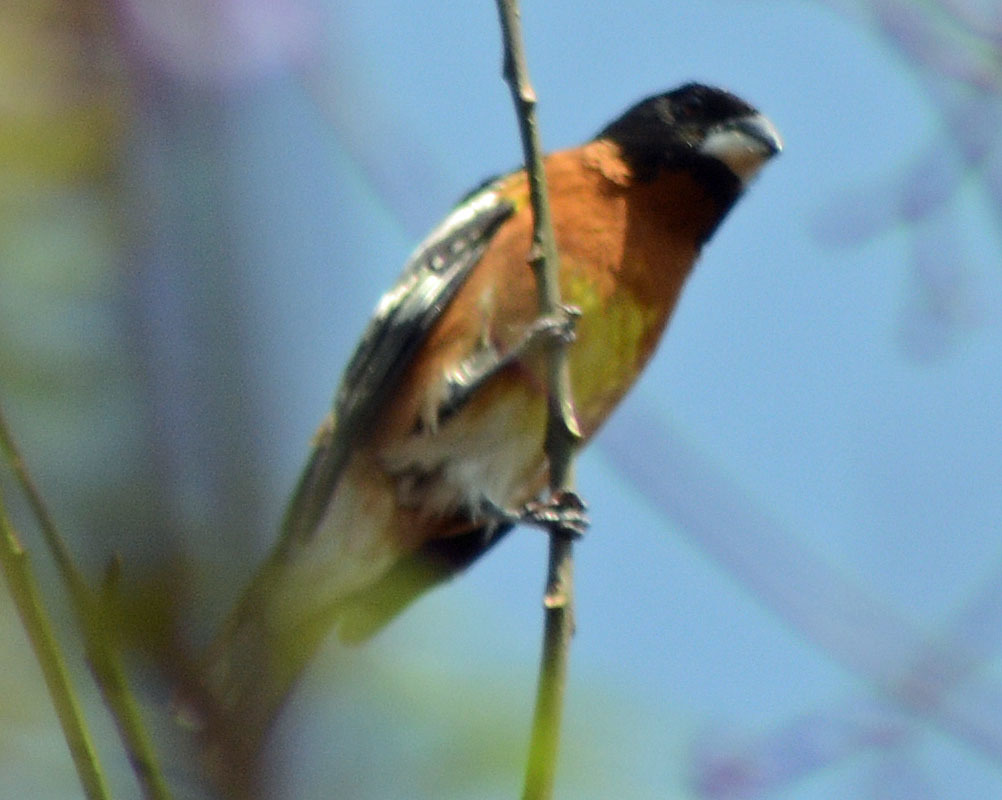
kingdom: Animalia
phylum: Chordata
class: Aves
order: Passeriformes
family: Cardinalidae
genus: Pheucticus
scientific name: Pheucticus melanocephalus
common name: Black-headed grosbeak
